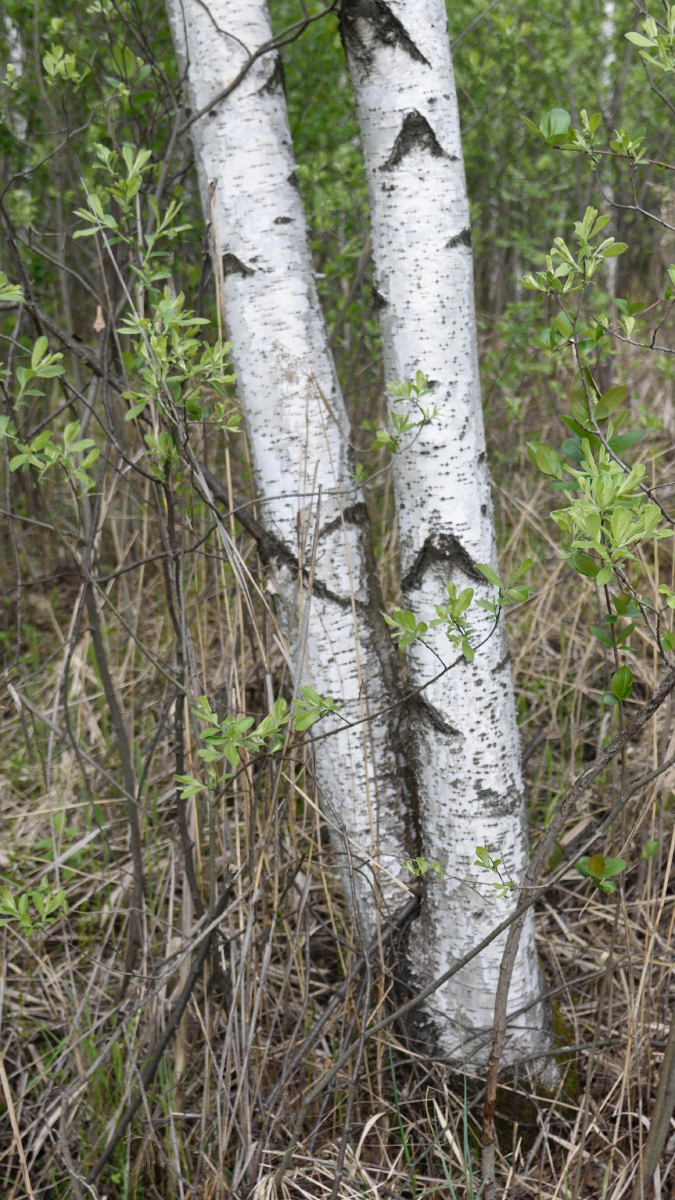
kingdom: Plantae
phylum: Tracheophyta
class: Magnoliopsida
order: Fagales
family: Betulaceae
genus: Betula
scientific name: Betula pubescens
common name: Downy birch
